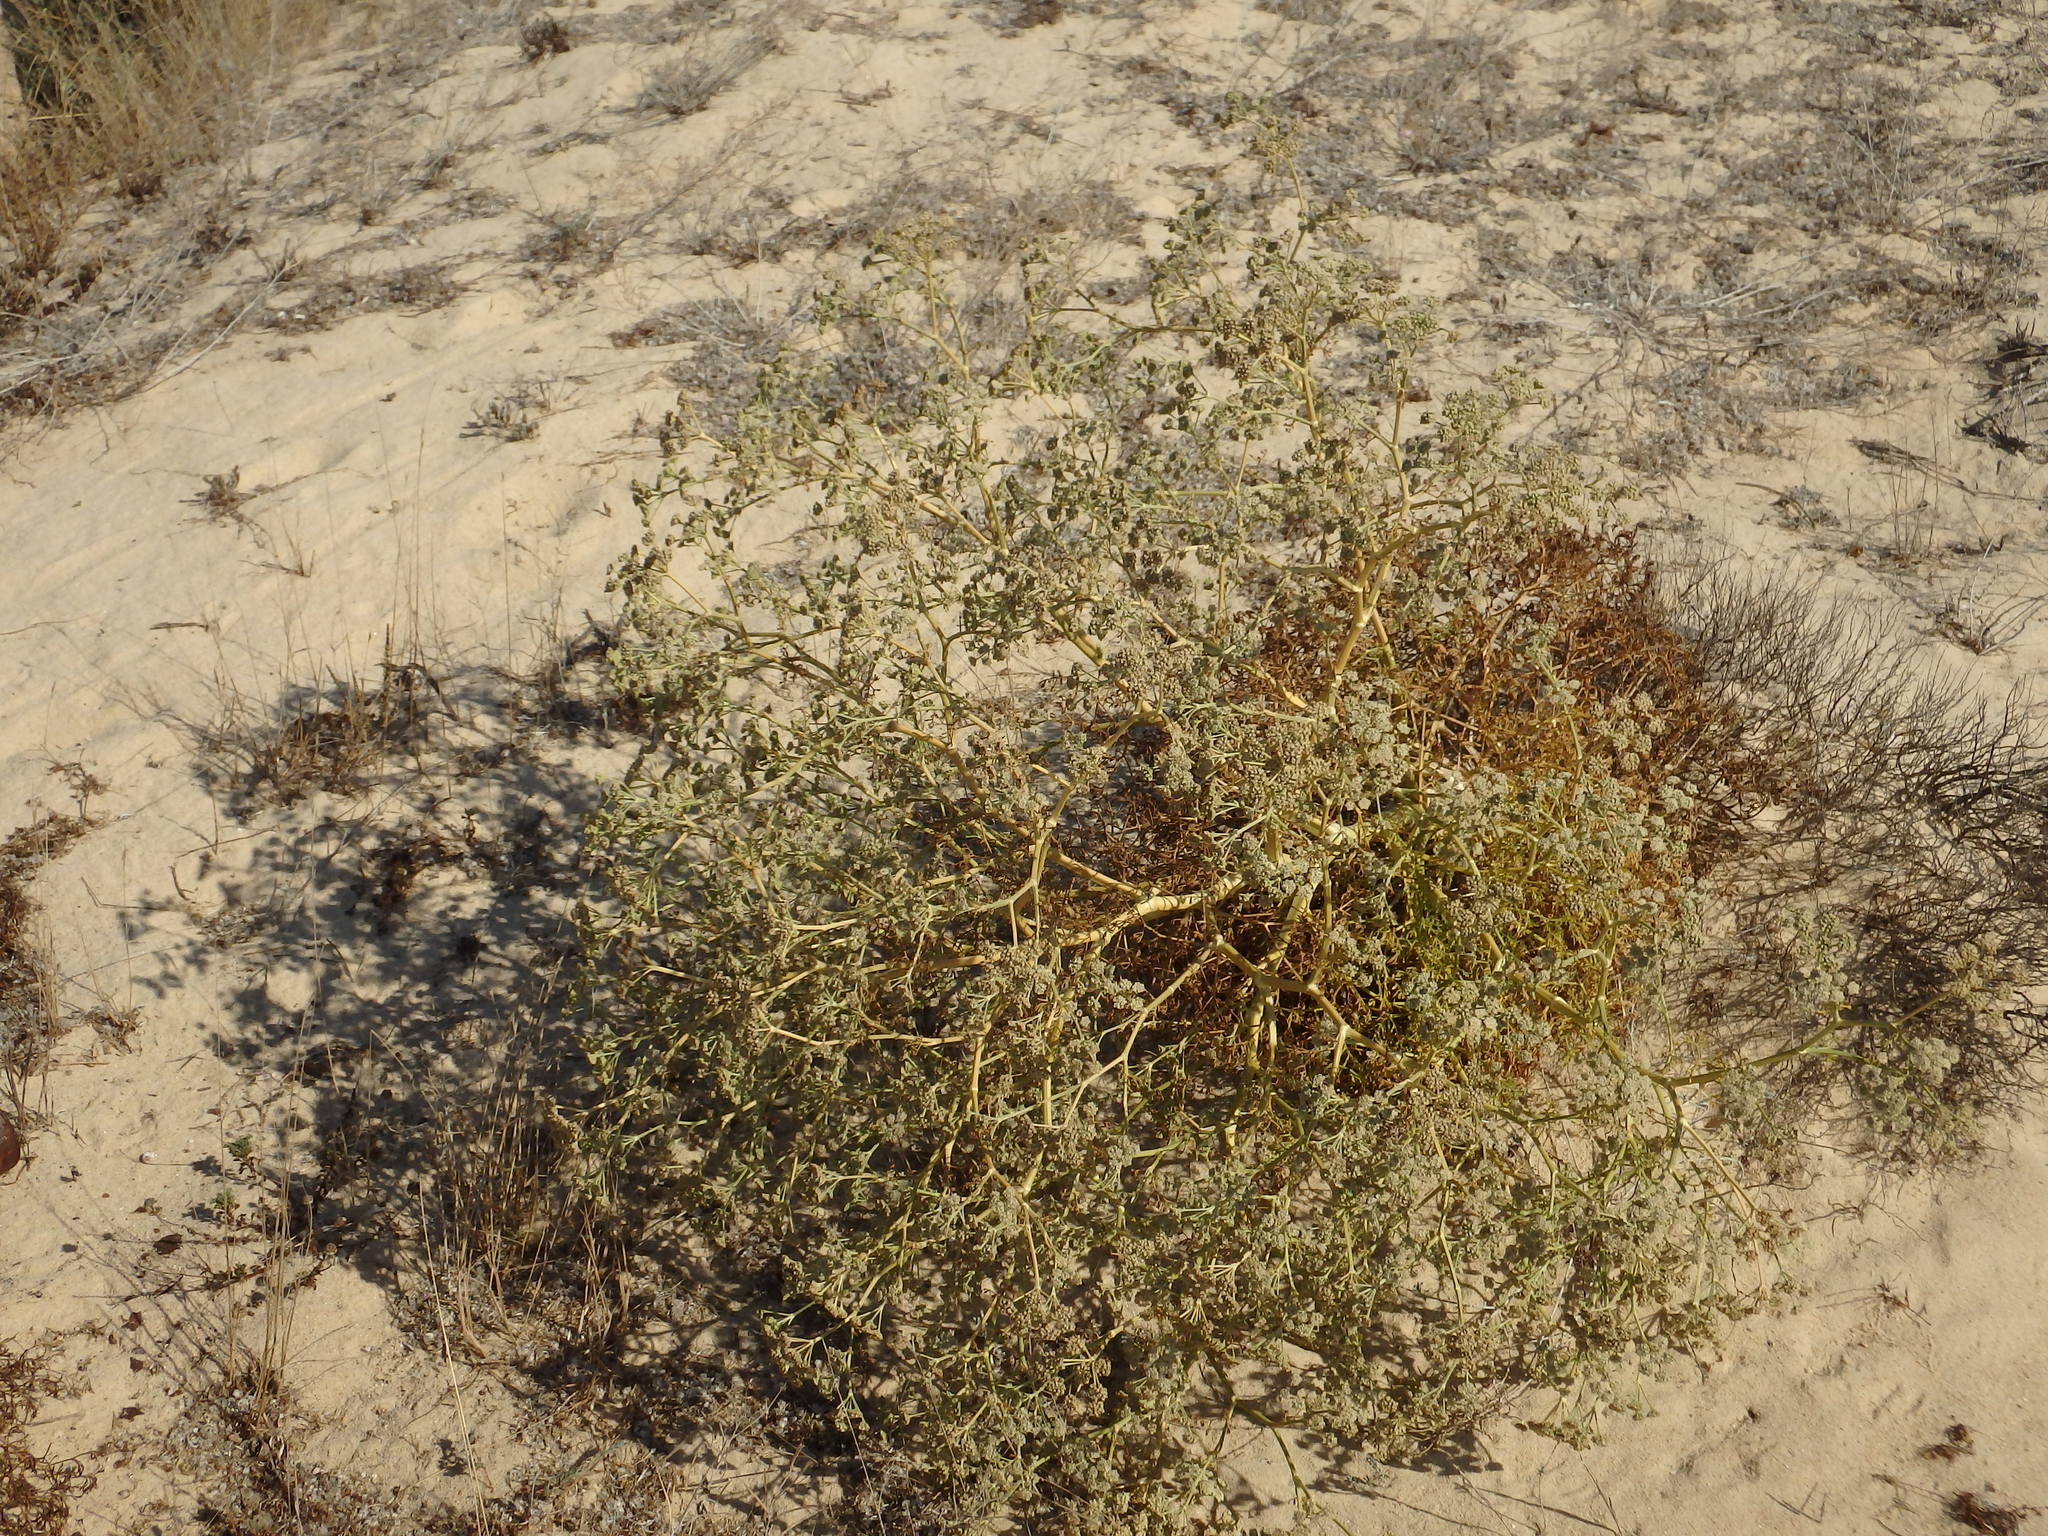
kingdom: Plantae
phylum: Tracheophyta
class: Magnoliopsida
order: Apiales
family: Apiaceae
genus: Seseli
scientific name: Seseli tortuosum
